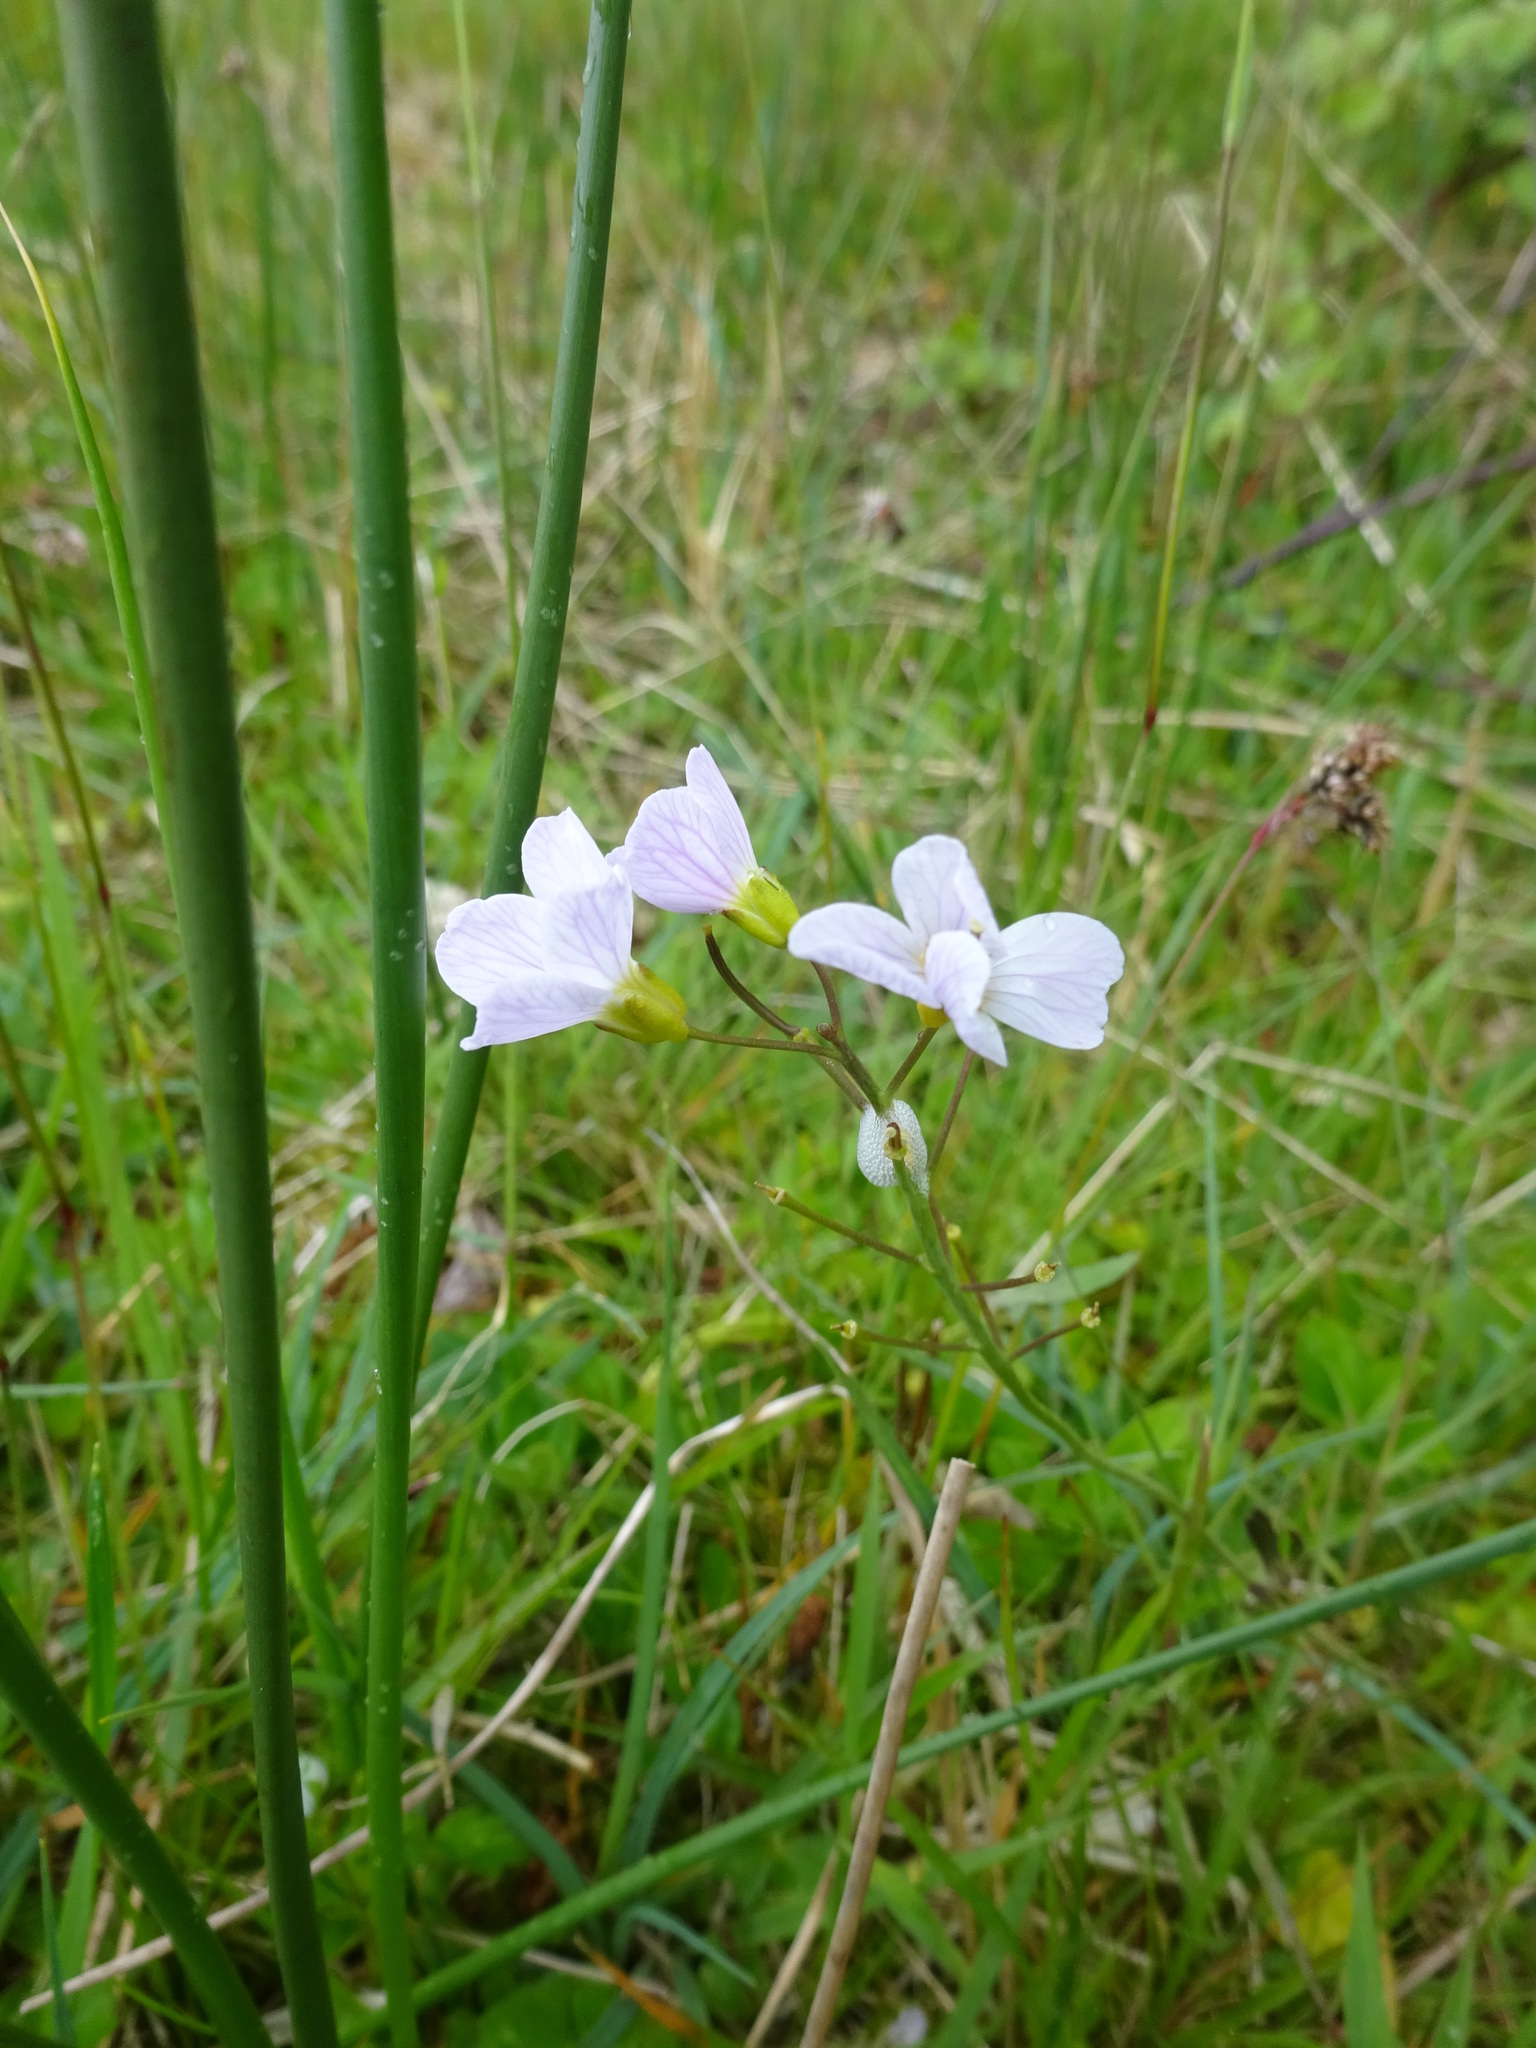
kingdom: Plantae
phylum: Tracheophyta
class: Magnoliopsida
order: Brassicales
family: Brassicaceae
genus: Cardamine
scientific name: Cardamine pratensis
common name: Cuckoo flower
